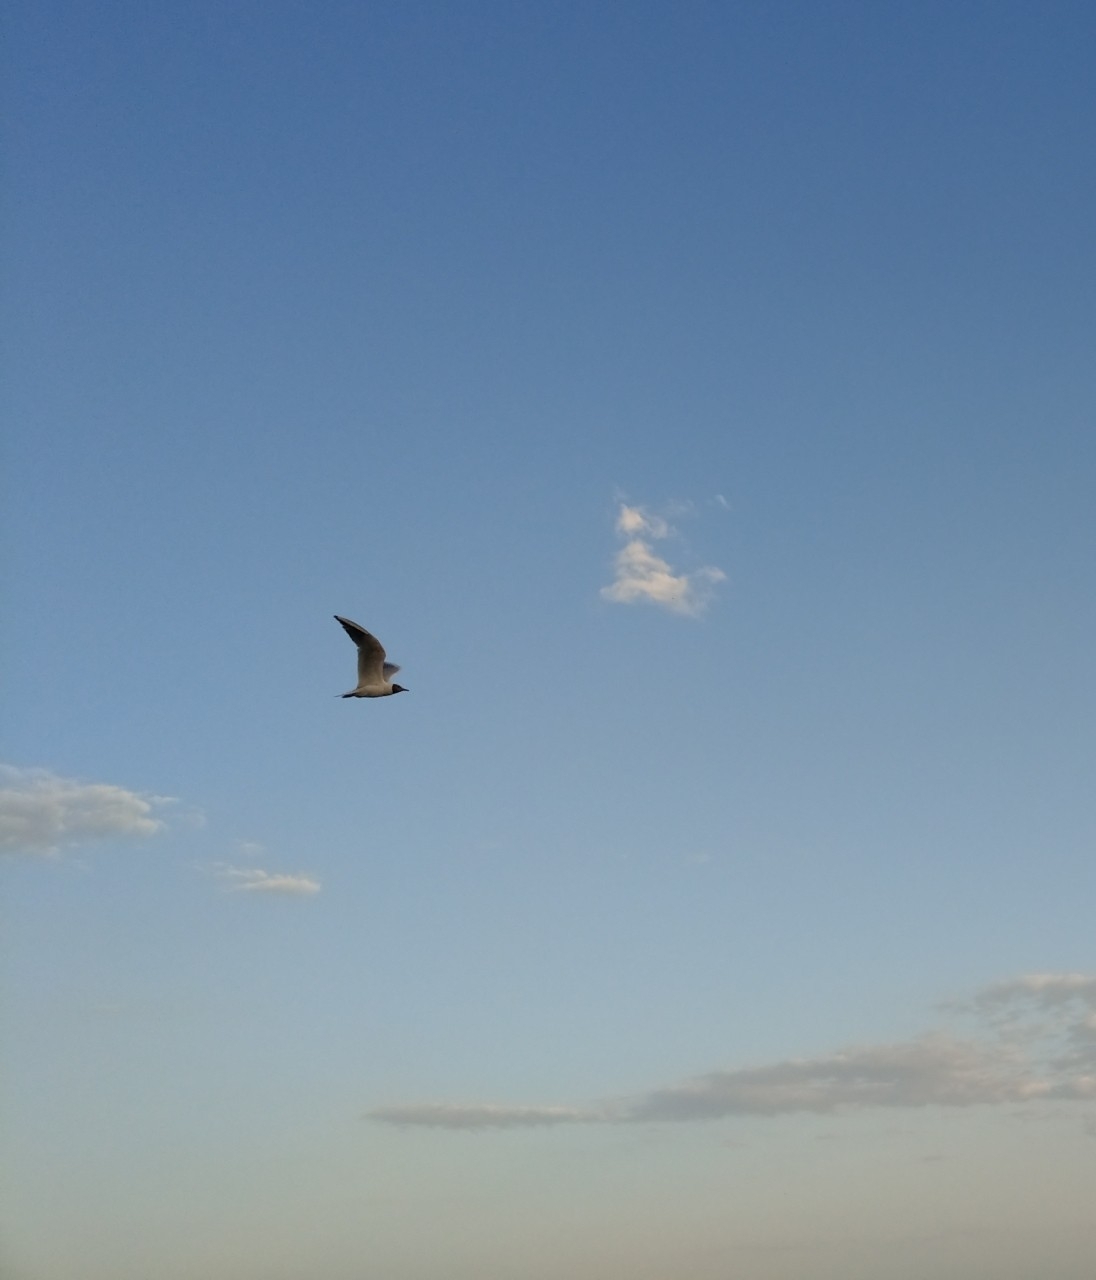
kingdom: Animalia
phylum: Chordata
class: Aves
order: Charadriiformes
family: Laridae
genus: Chroicocephalus
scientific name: Chroicocephalus ridibundus
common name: Black-headed gull
